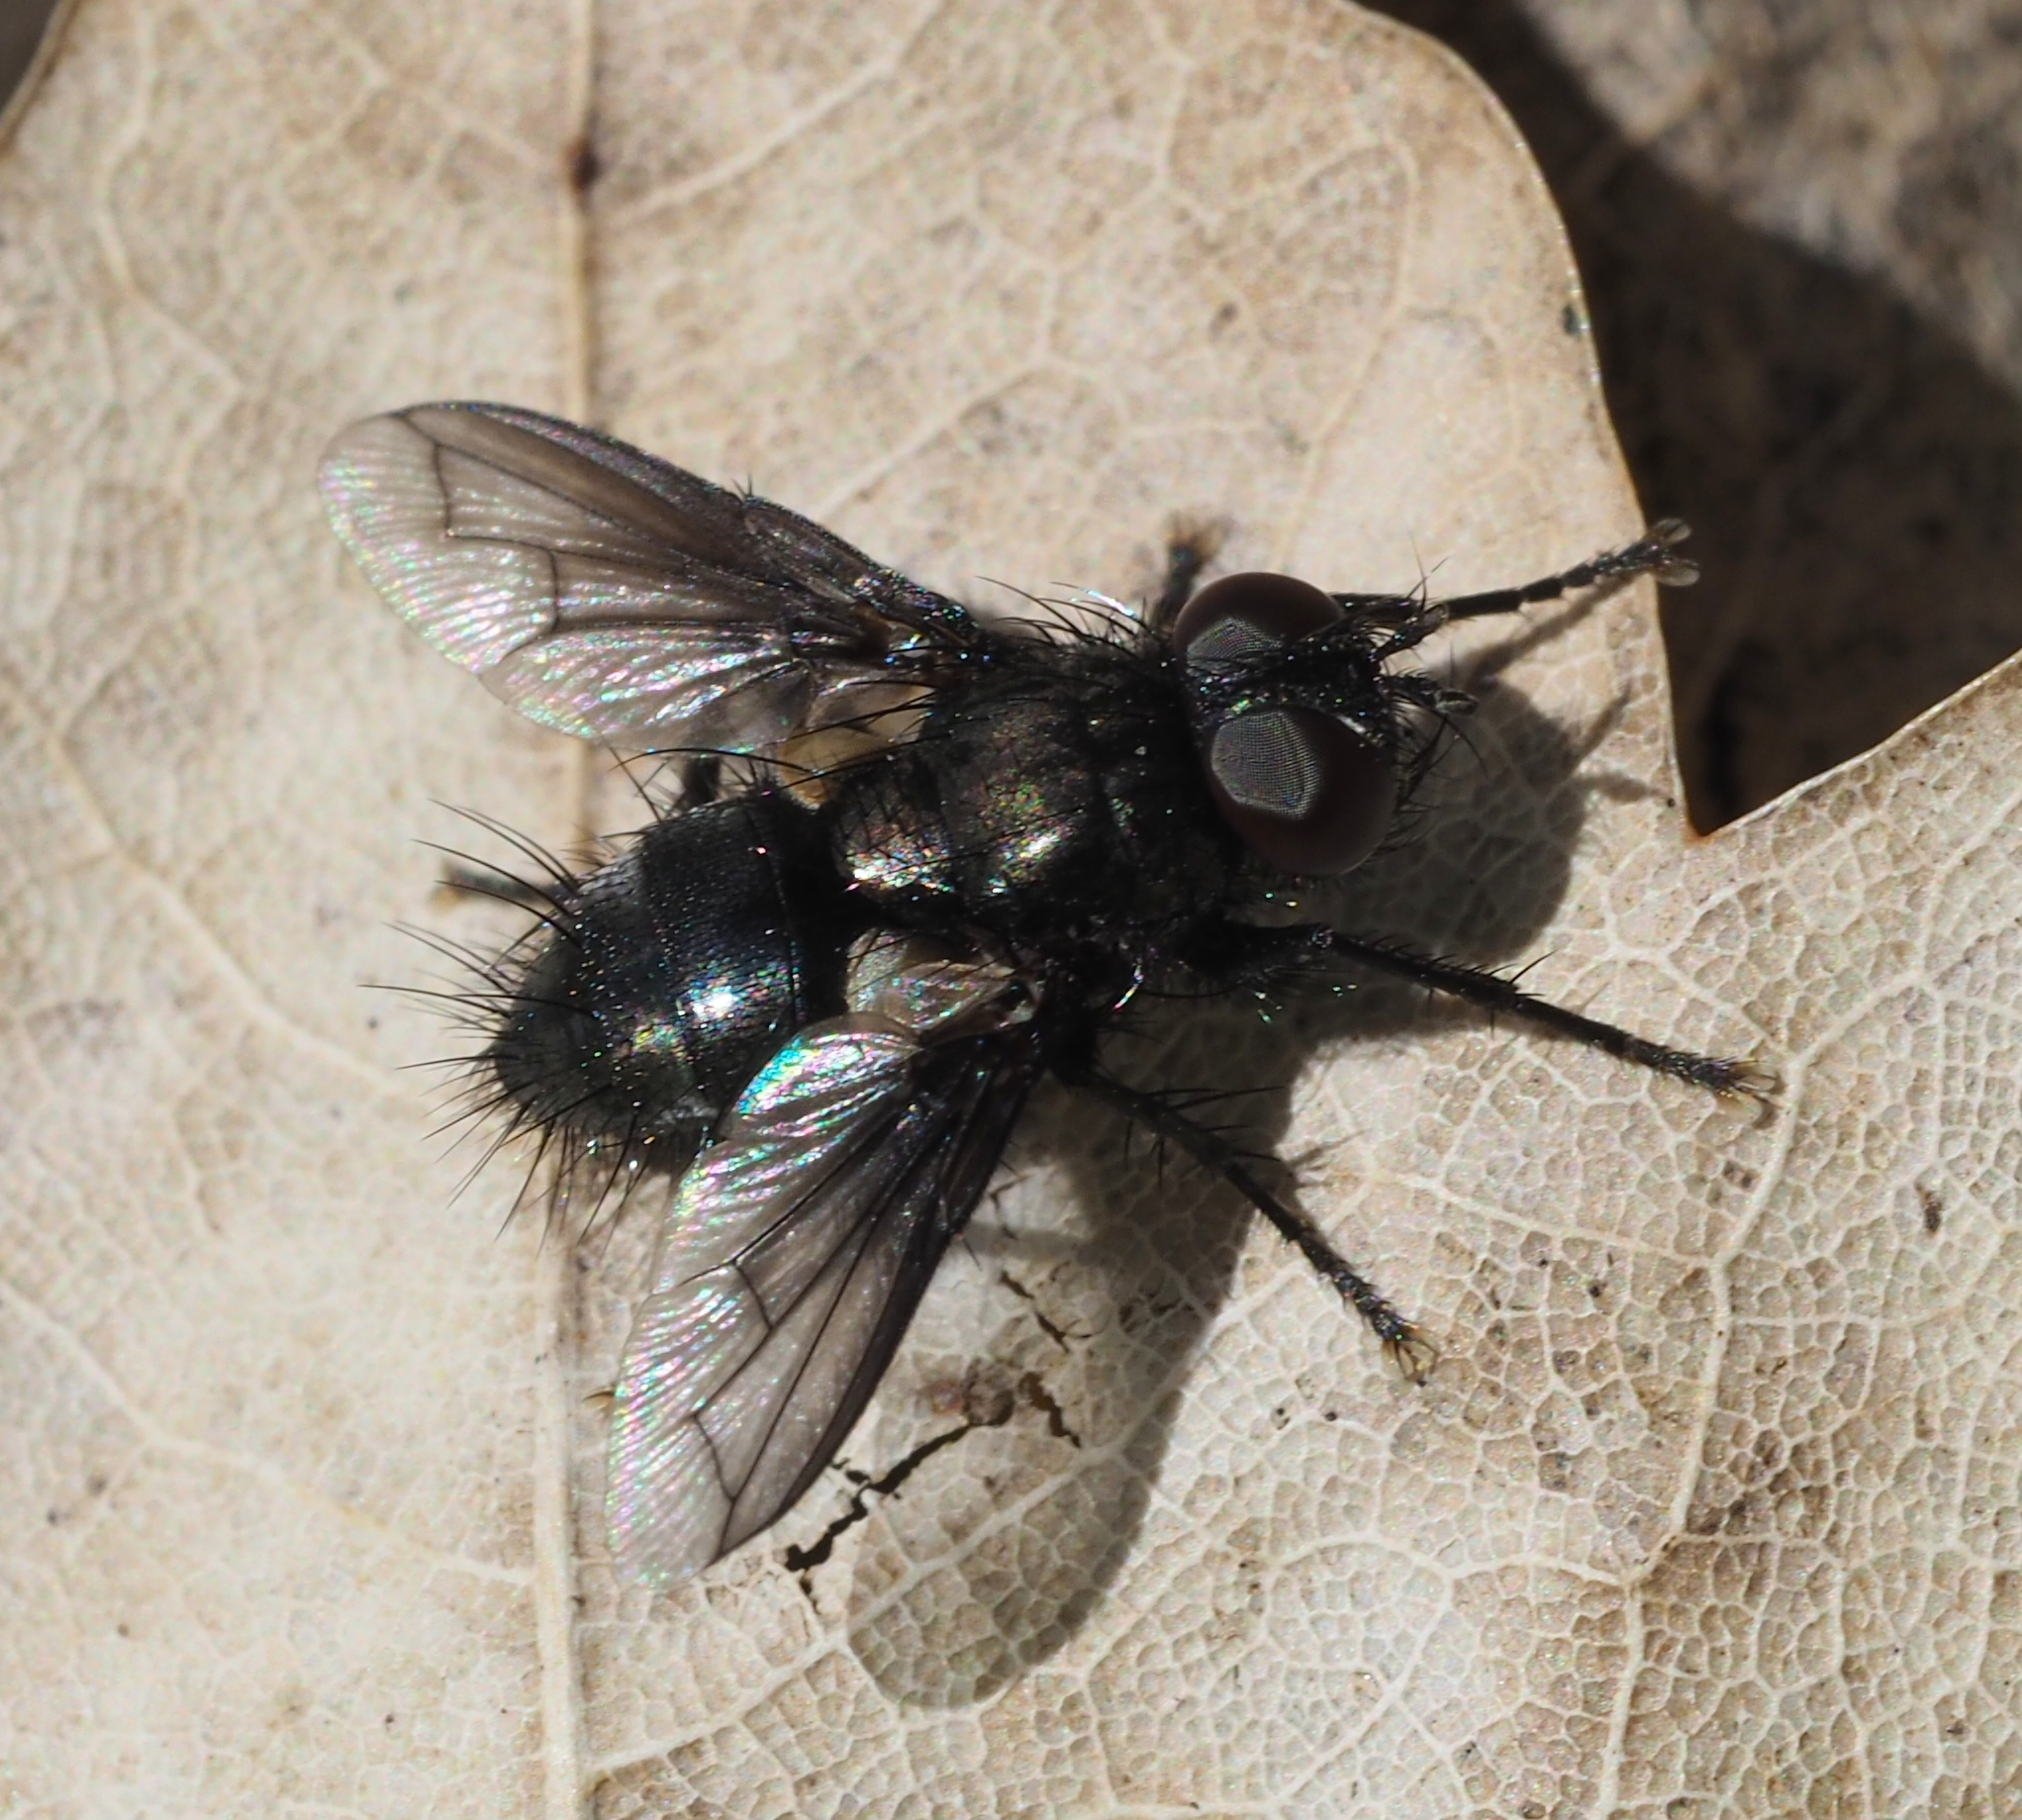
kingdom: Animalia
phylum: Arthropoda
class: Insecta
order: Diptera
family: Tachinidae
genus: Kirbya
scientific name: Kirbya moerens
